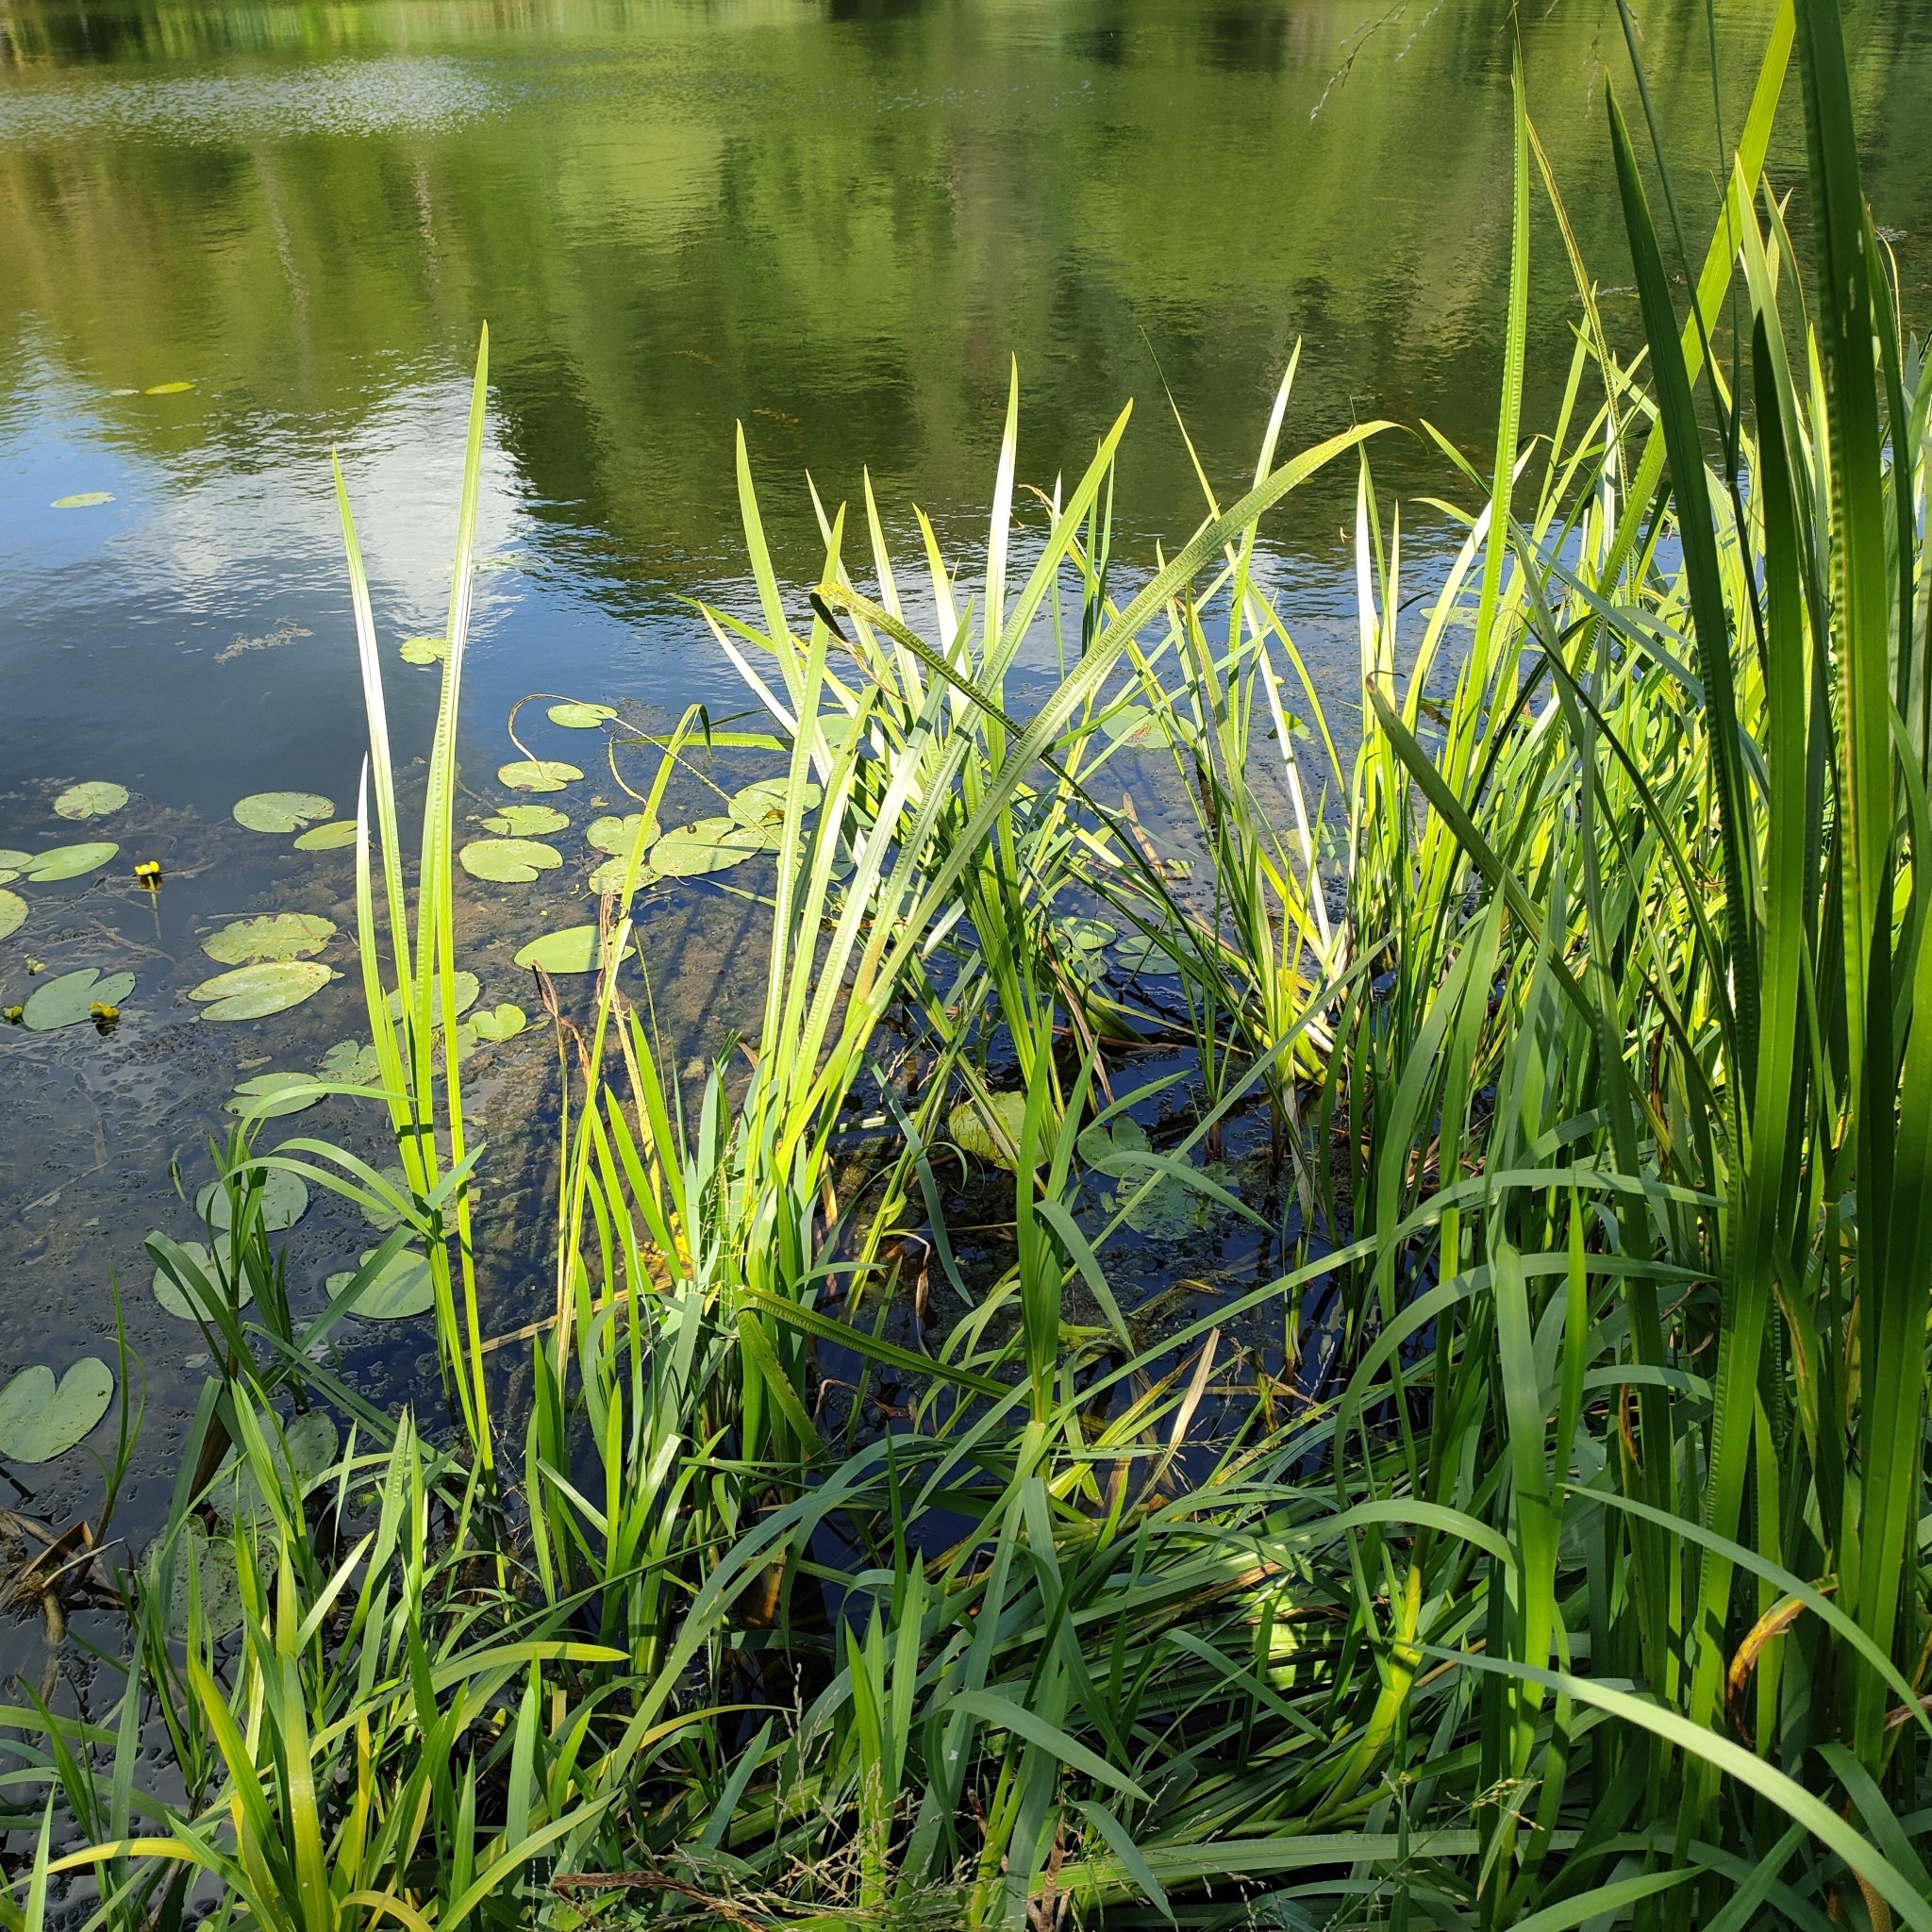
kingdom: Plantae
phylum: Tracheophyta
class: Liliopsida
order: Acorales
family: Acoraceae
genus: Acorus
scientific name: Acorus calamus
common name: Sweet-flag
